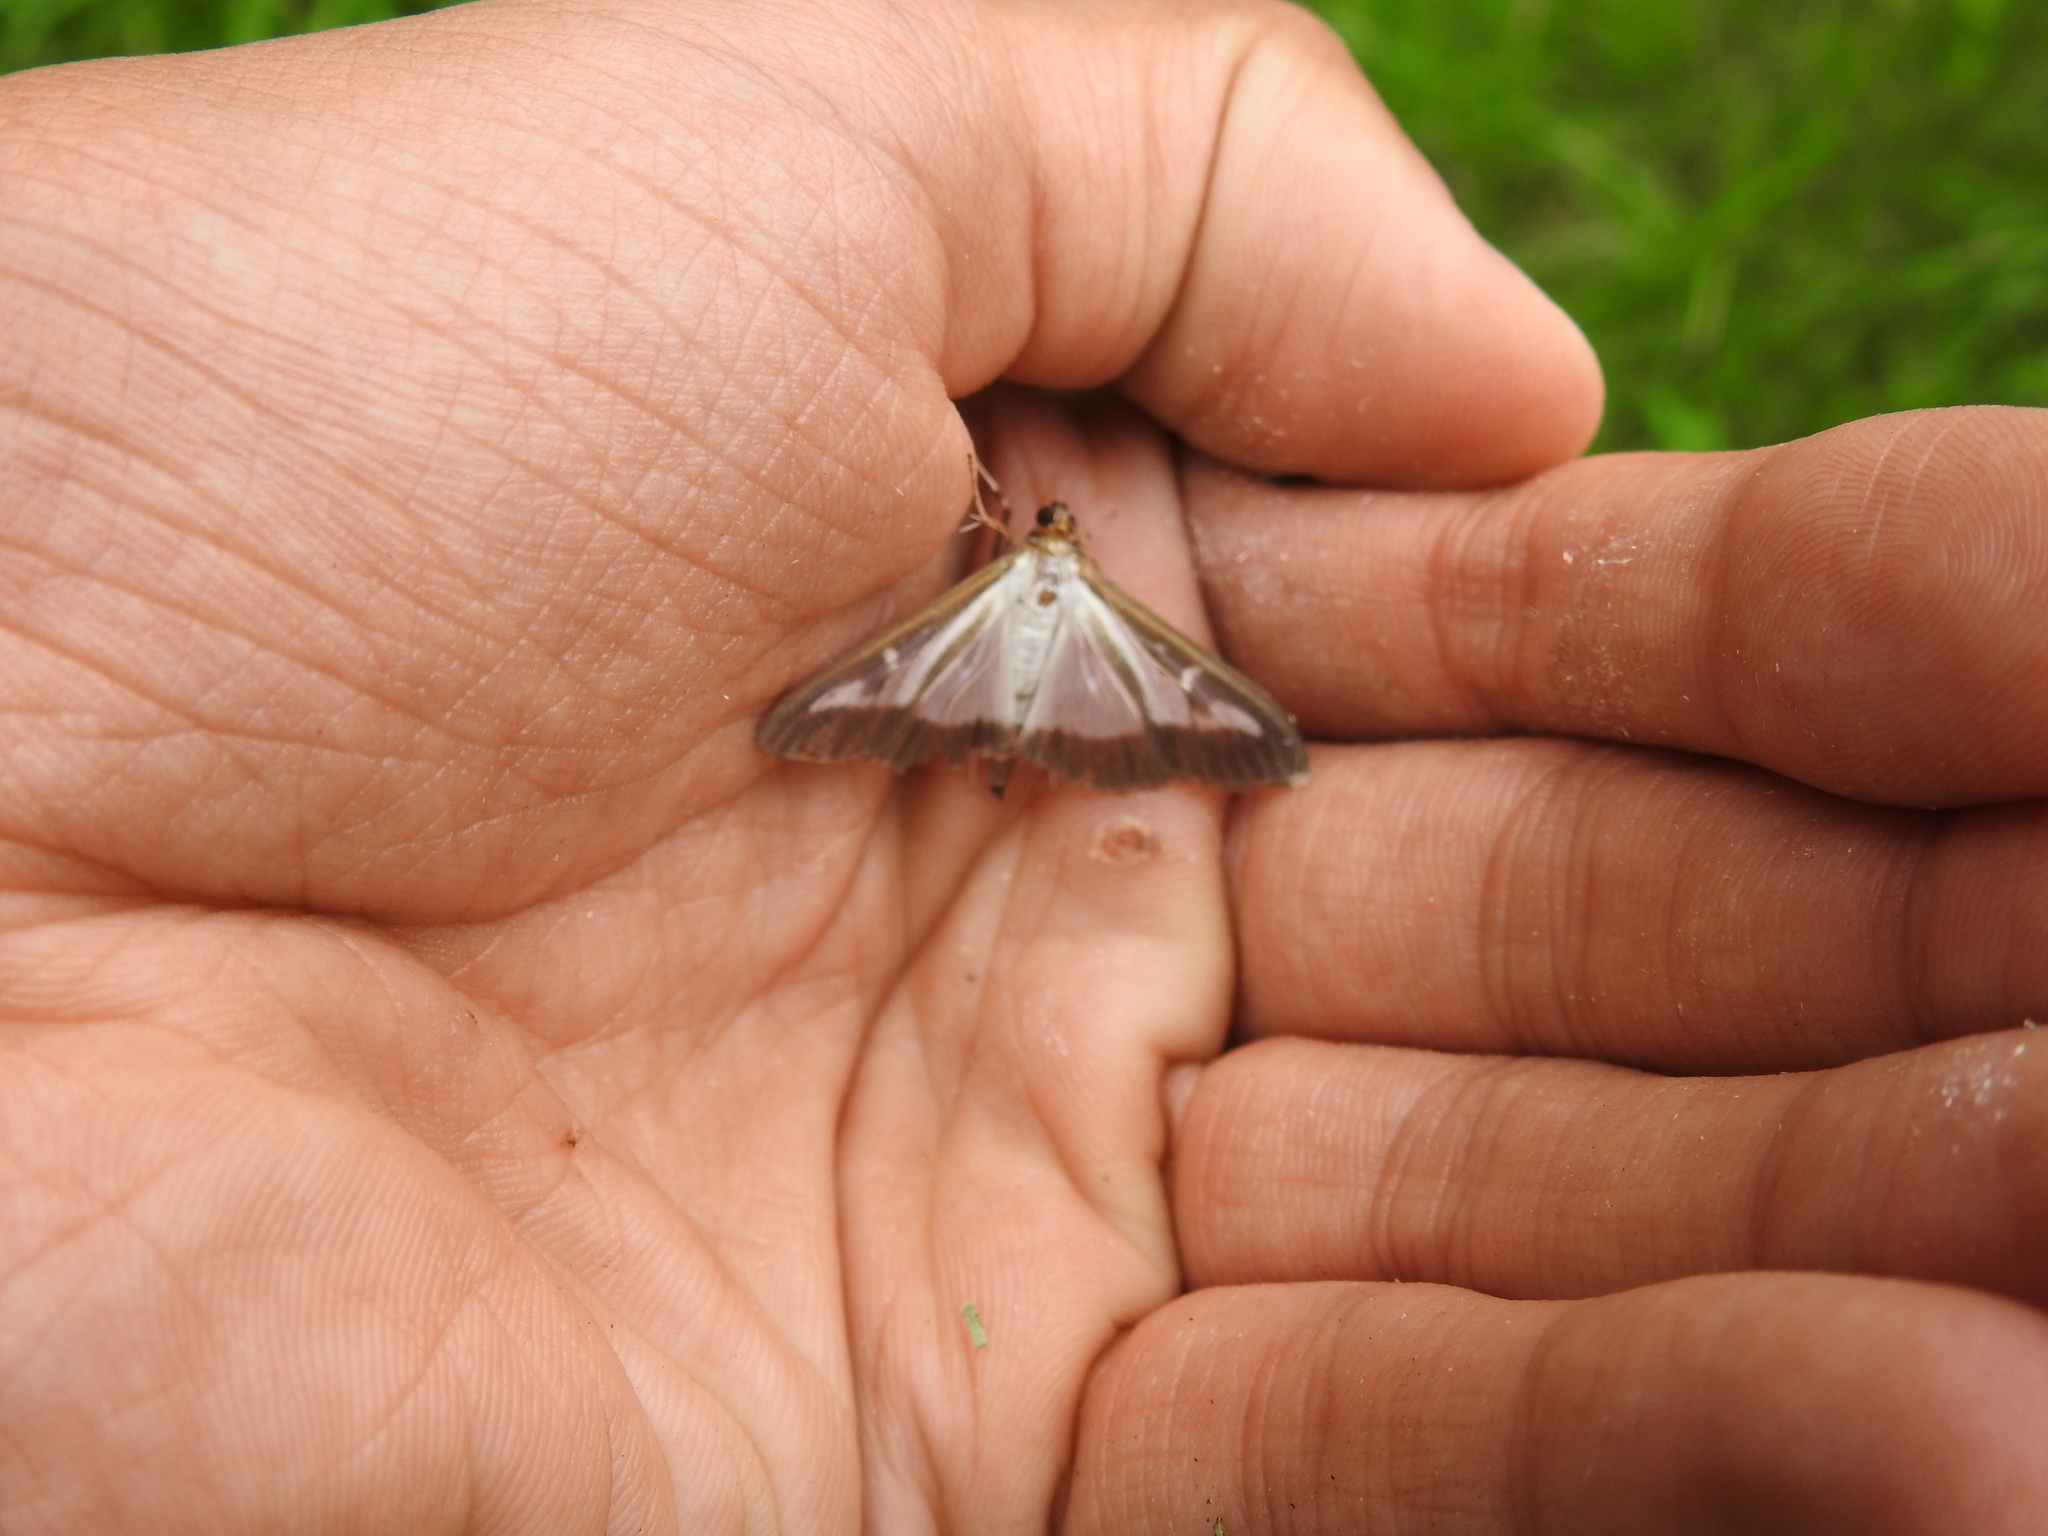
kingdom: Animalia
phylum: Arthropoda
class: Insecta
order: Lepidoptera
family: Crambidae
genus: Cydalima
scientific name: Cydalima perspectalis
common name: Box tree moth
